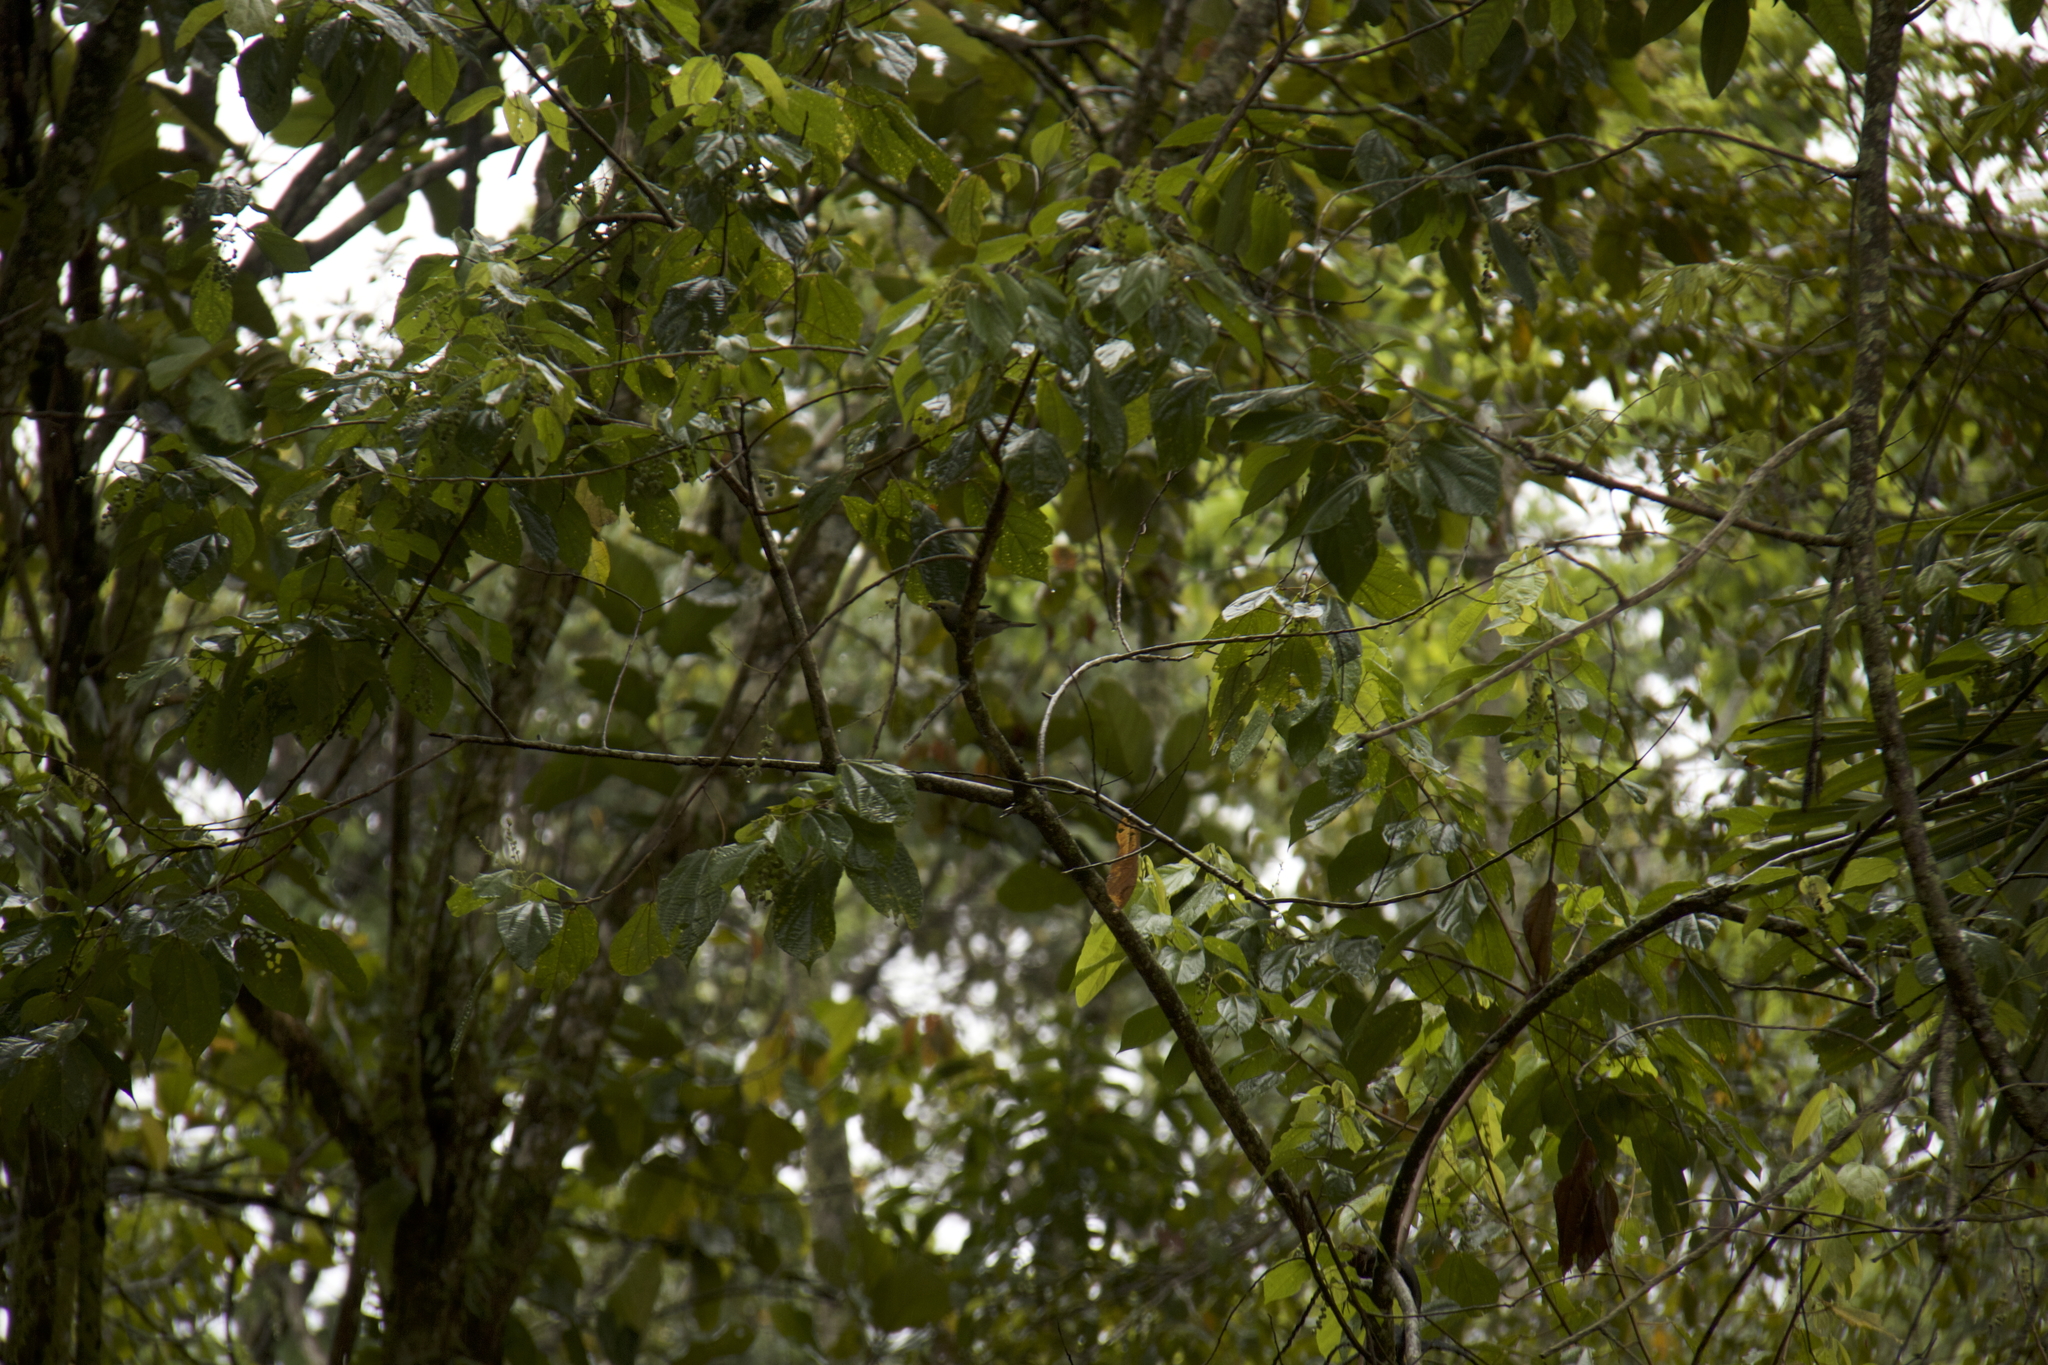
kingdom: Animalia
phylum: Chordata
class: Aves
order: Passeriformes
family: Thraupidae
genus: Thraupis
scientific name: Thraupis palmarum
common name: Palm tanager
